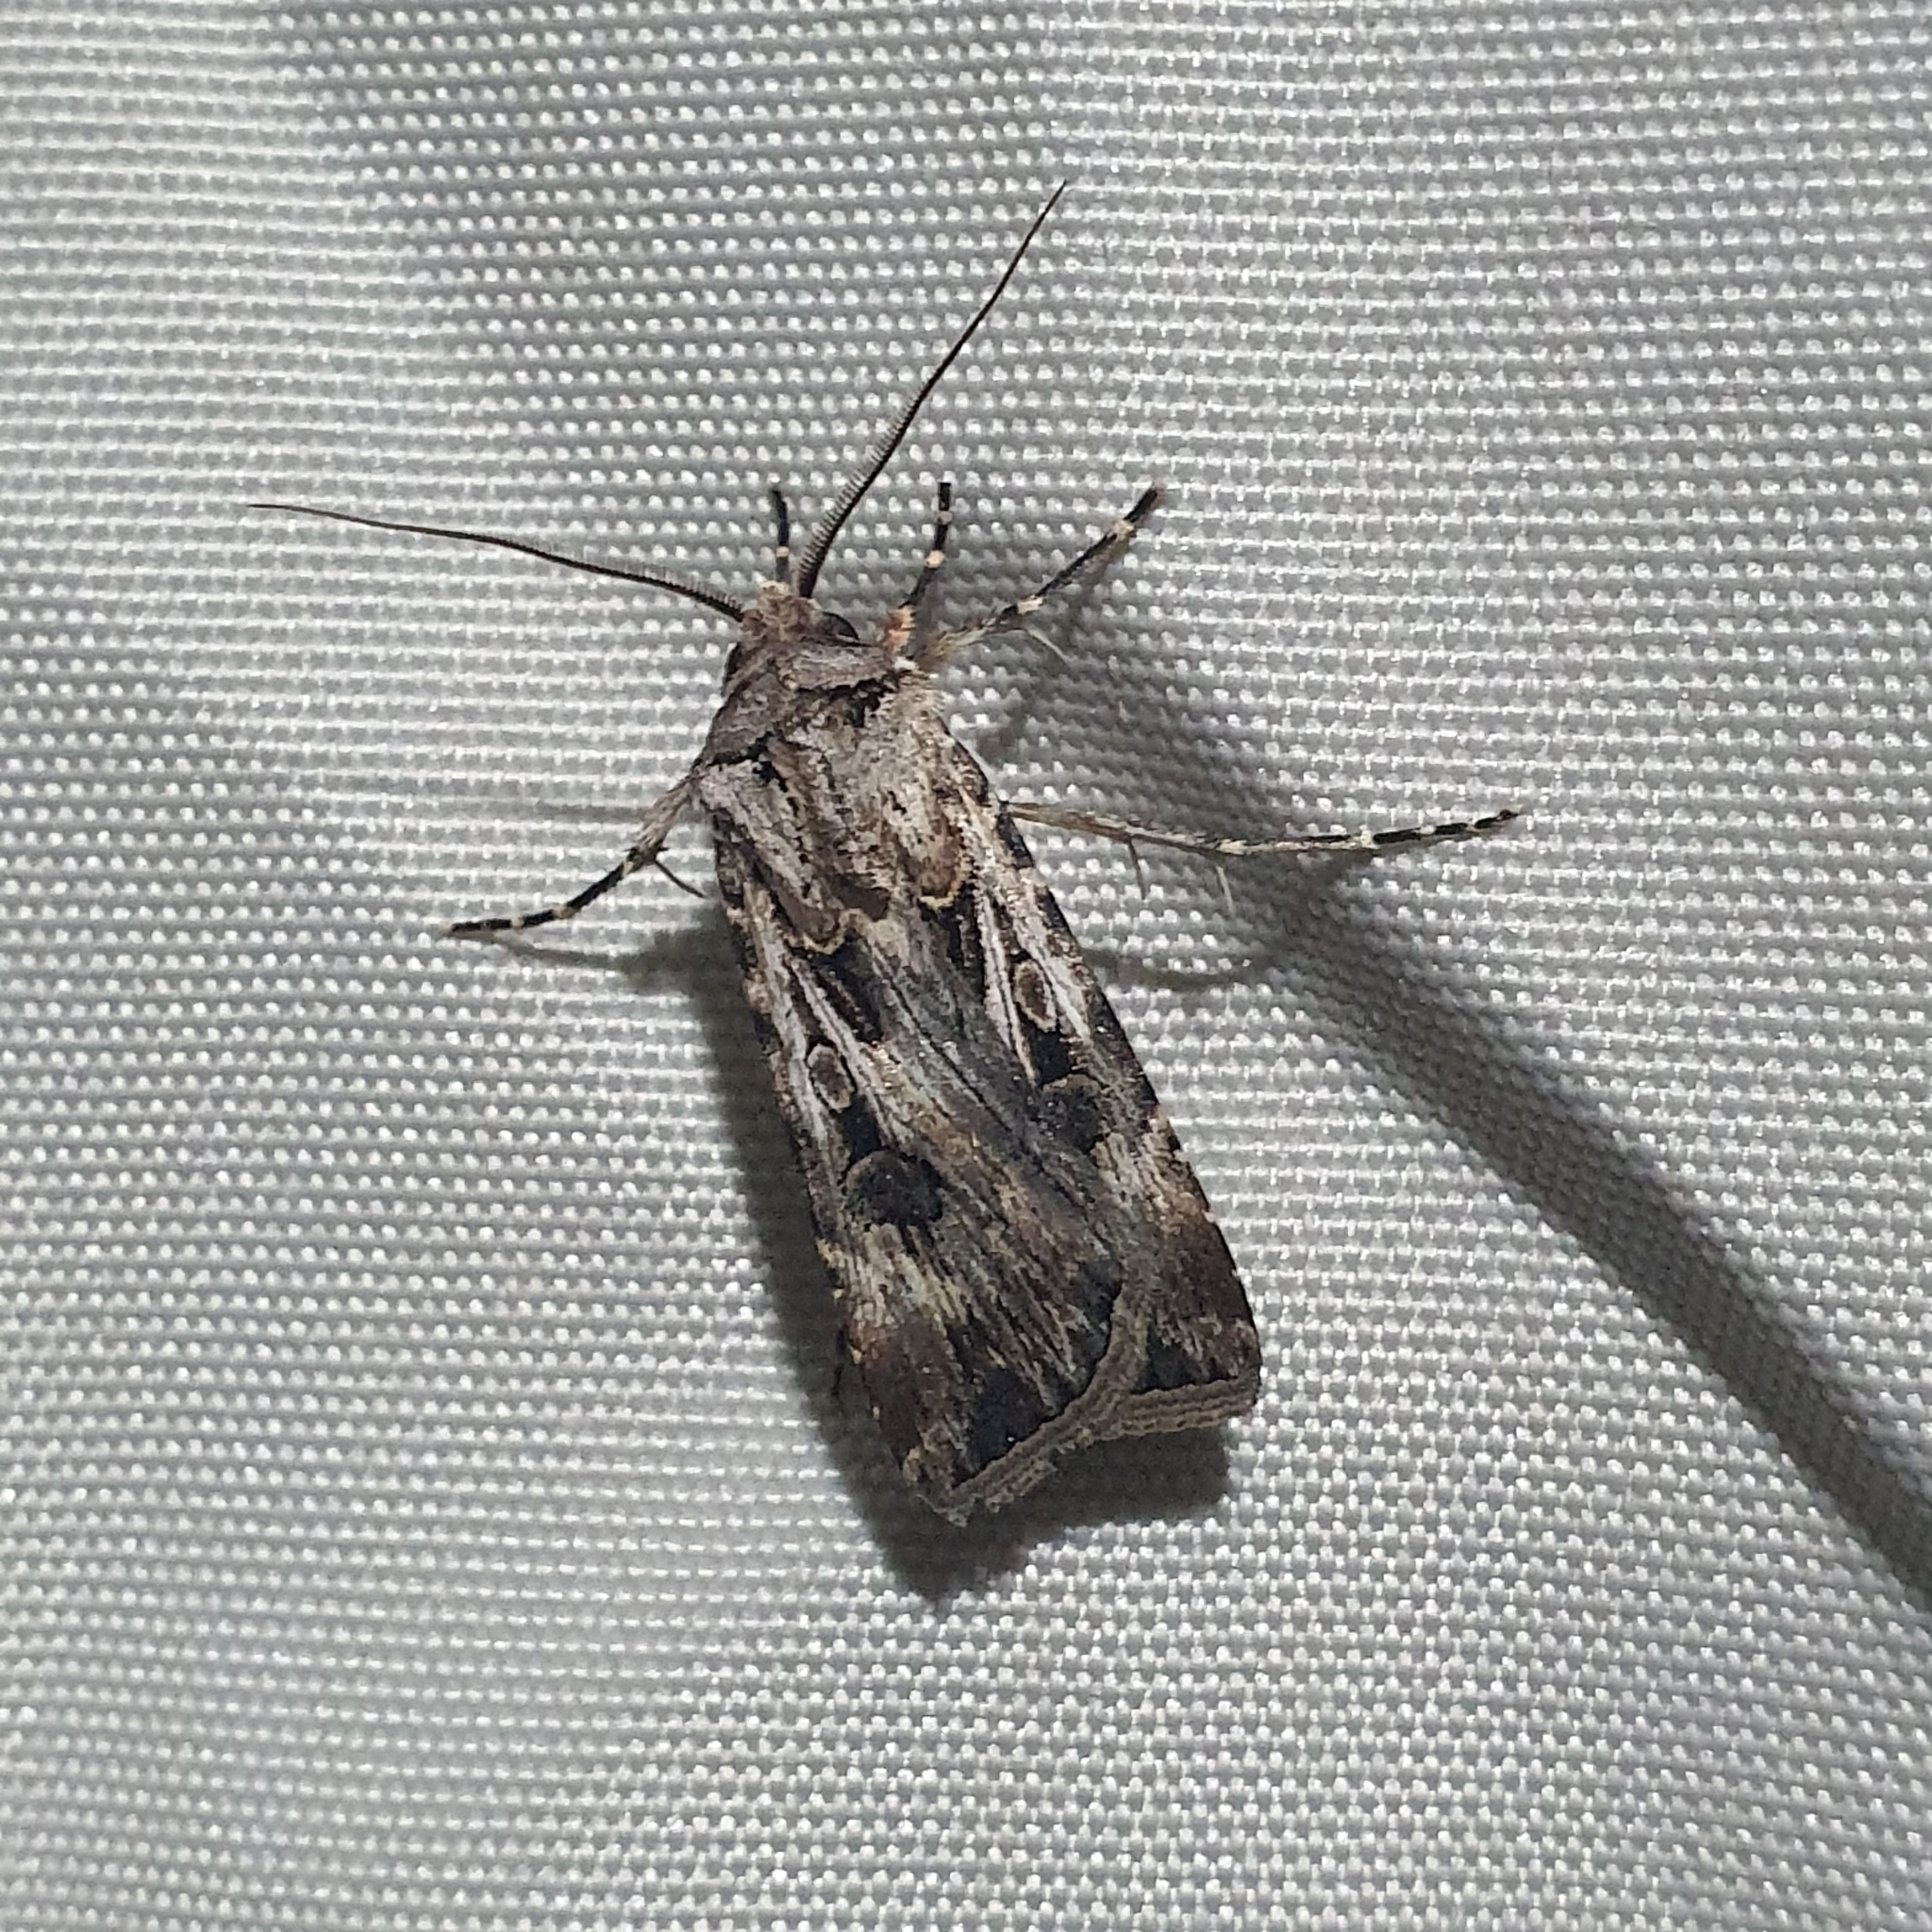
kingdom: Animalia
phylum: Arthropoda
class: Insecta
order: Lepidoptera
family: Noctuidae
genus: Agrotis
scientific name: Agrotis munda
